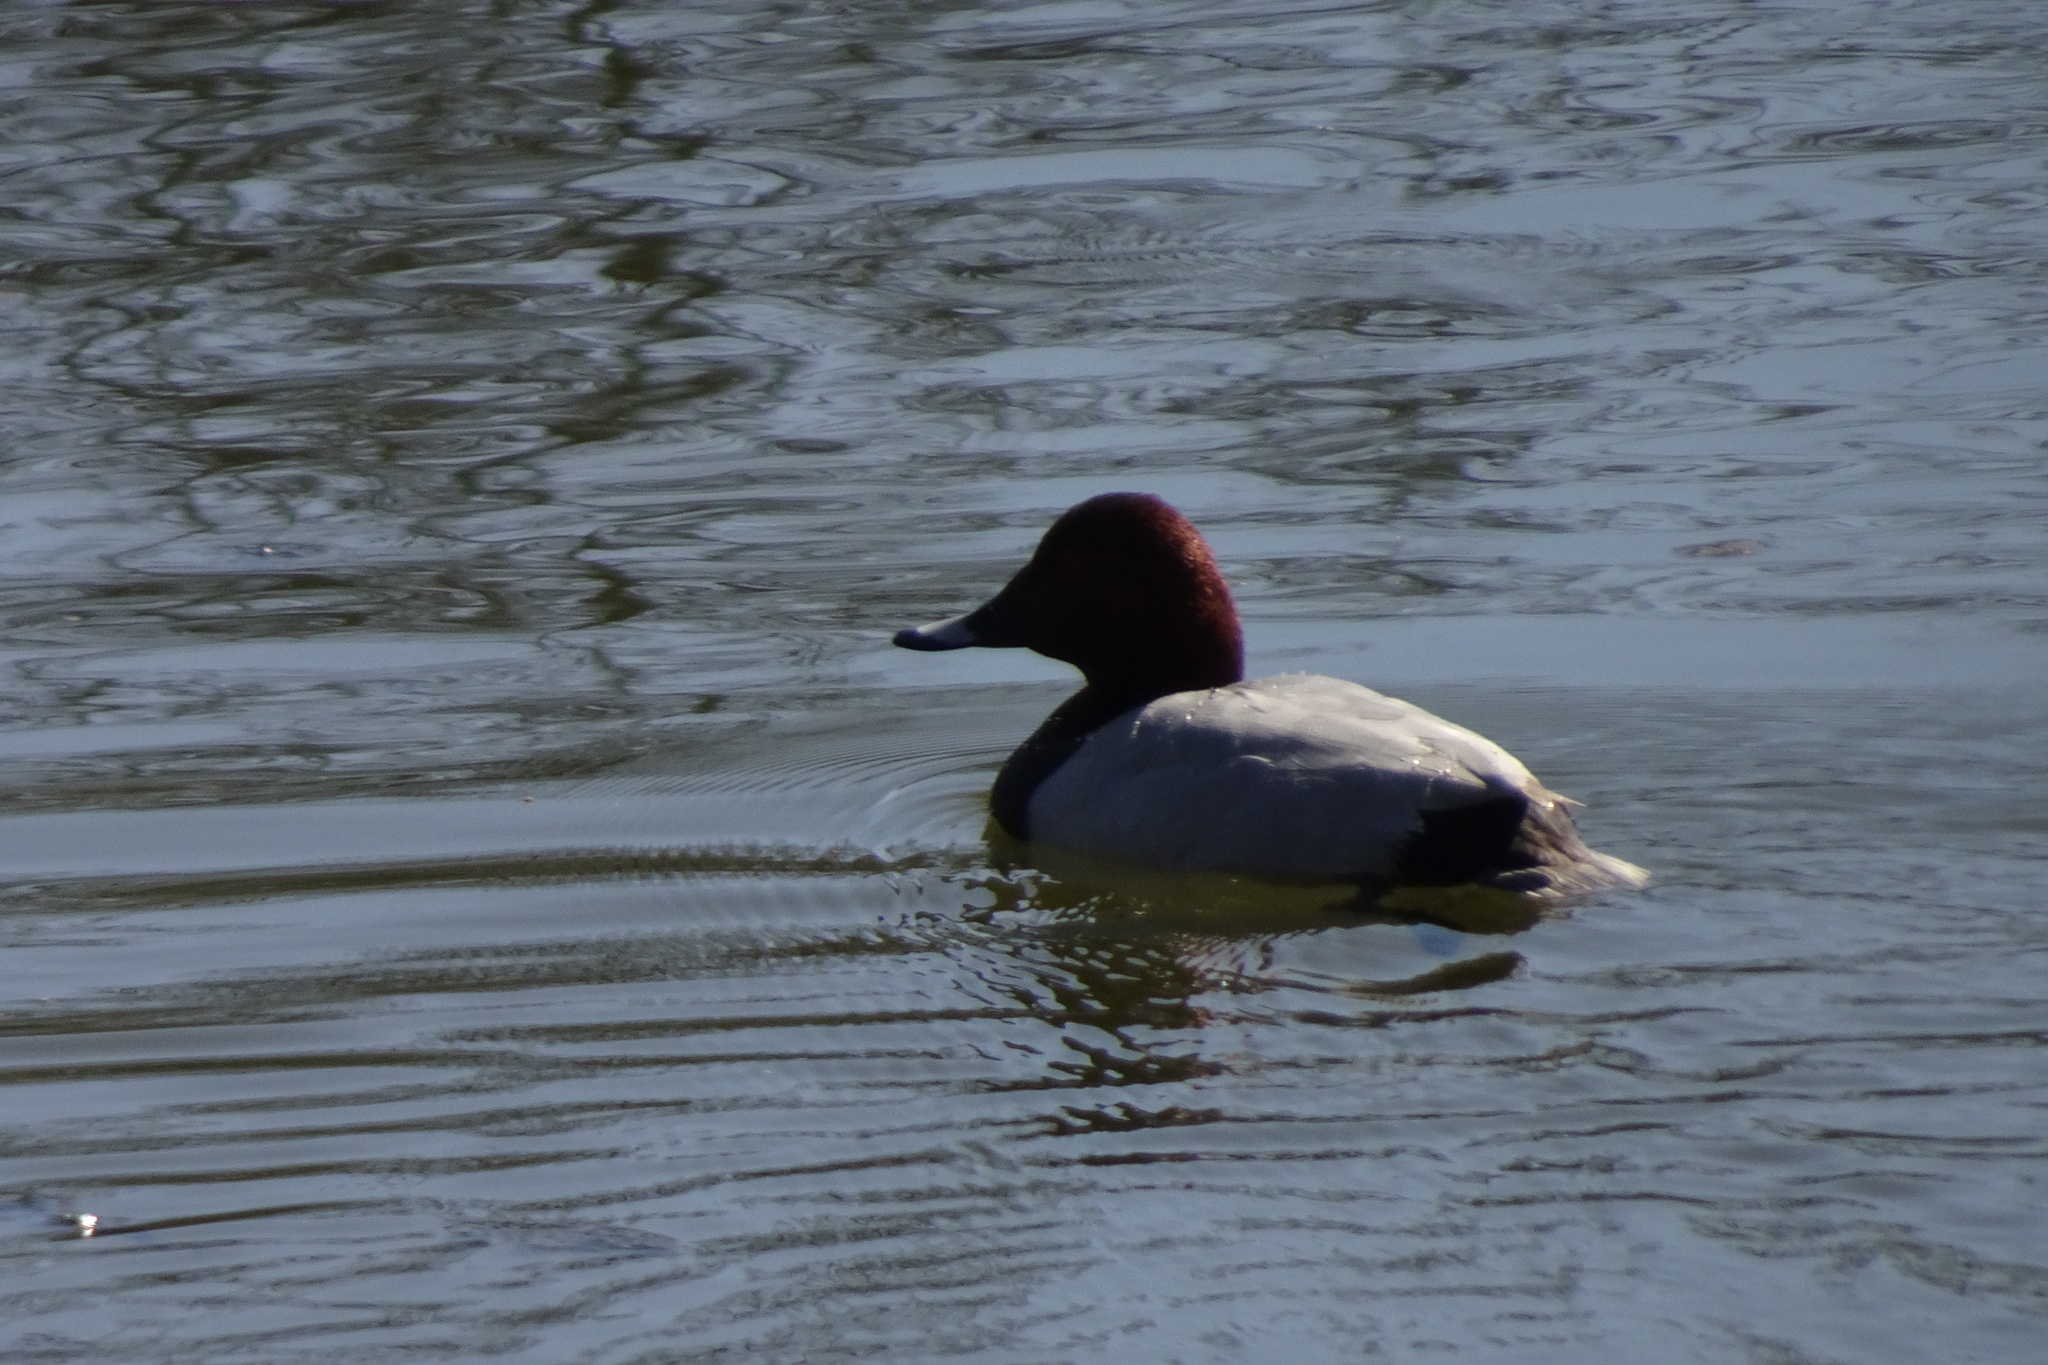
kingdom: Animalia
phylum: Chordata
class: Aves
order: Anseriformes
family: Anatidae
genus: Aythya
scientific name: Aythya ferina
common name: Common pochard
